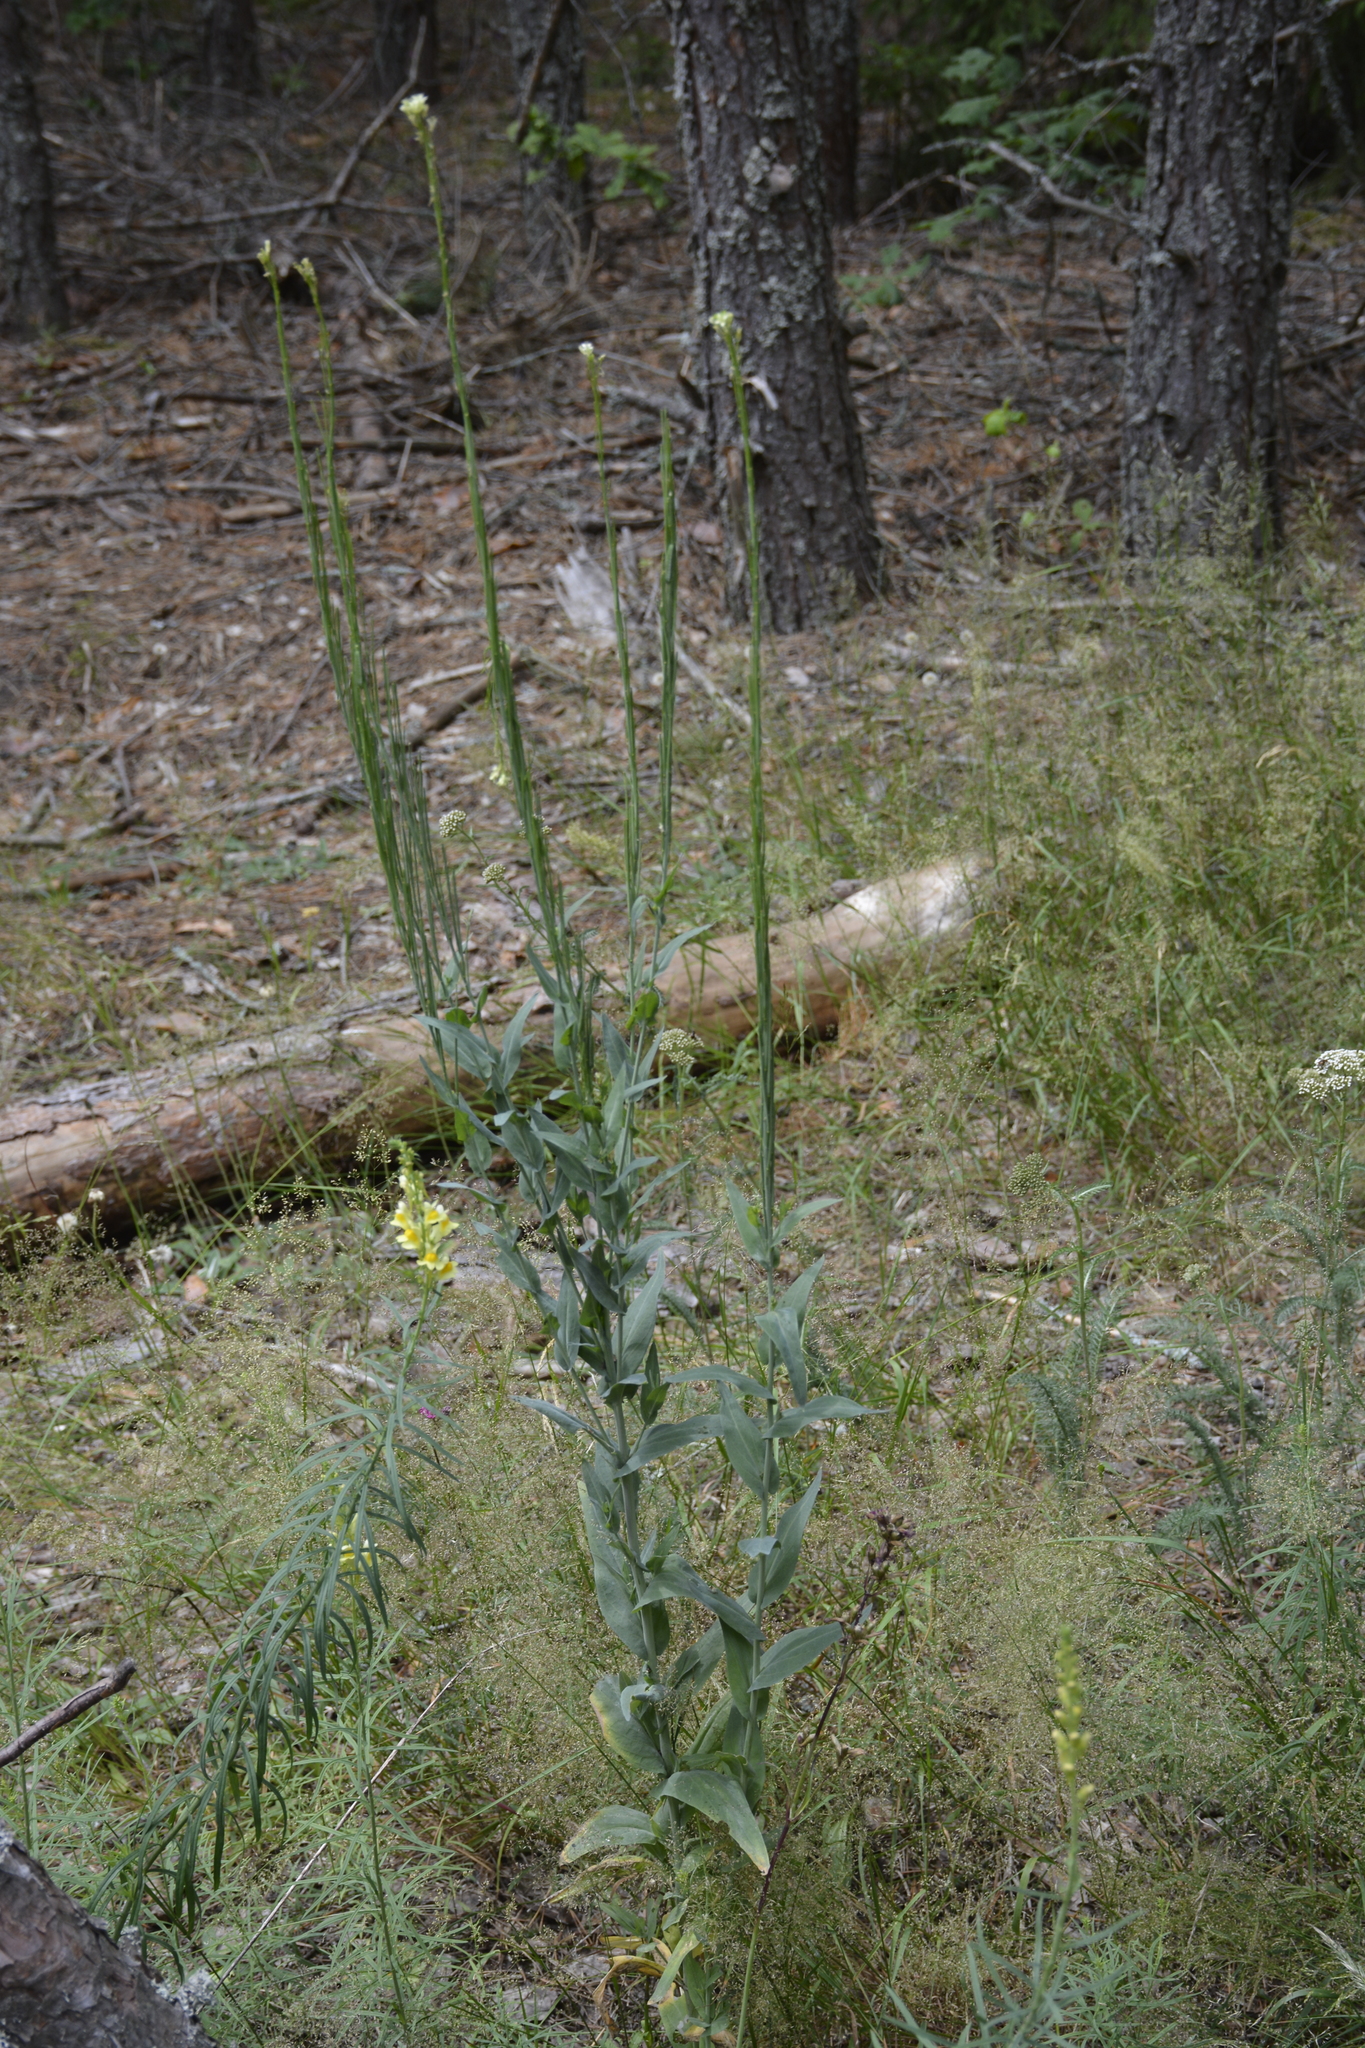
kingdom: Plantae
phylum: Tracheophyta
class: Magnoliopsida
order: Brassicales
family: Brassicaceae
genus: Turritis
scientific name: Turritis glabra
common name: Tower rockcress
